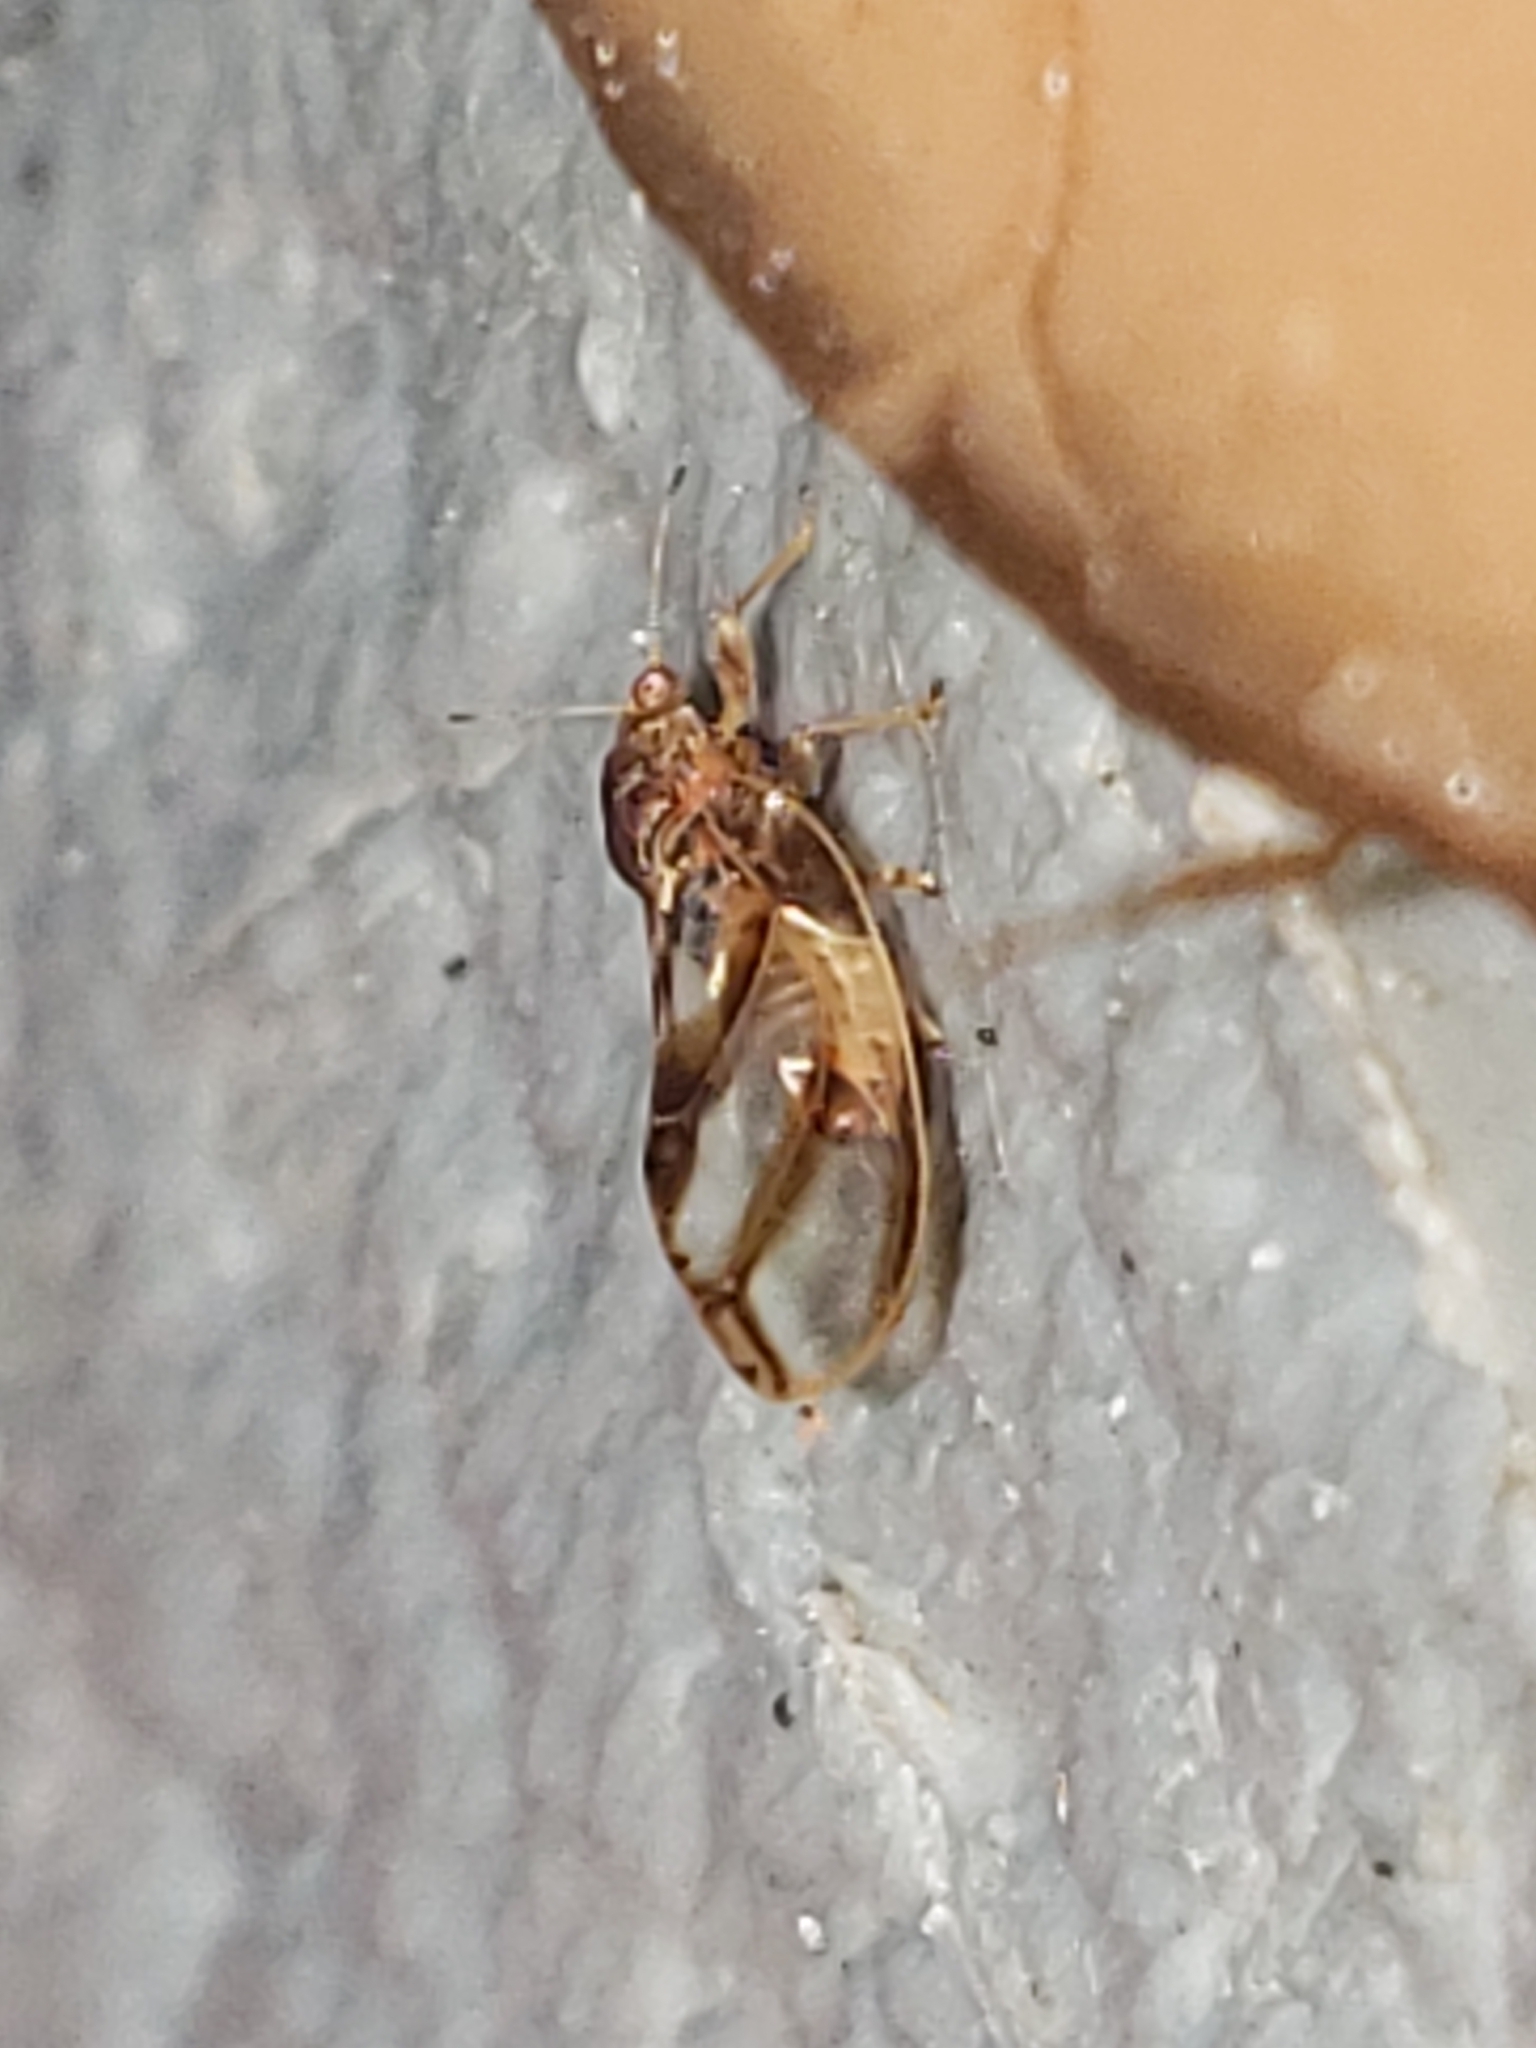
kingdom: Animalia
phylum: Arthropoda
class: Insecta
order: Hemiptera
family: Triozidae
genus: Phylloplecta
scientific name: Phylloplecta tripunctata
